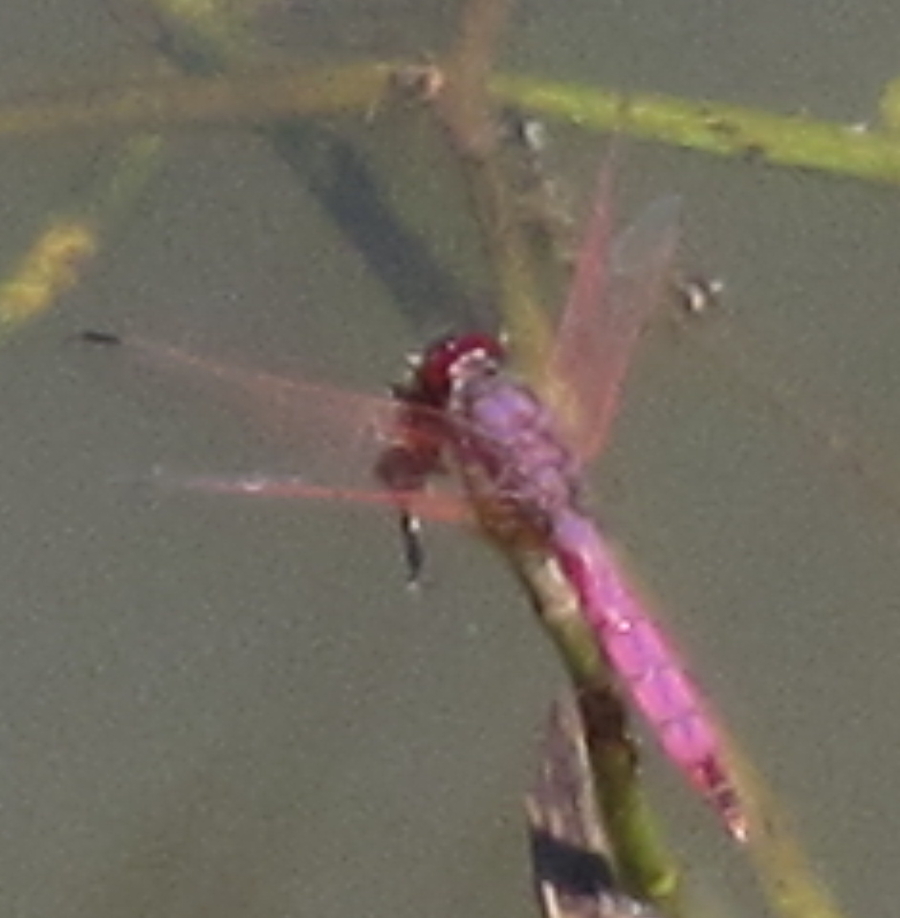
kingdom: Animalia
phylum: Arthropoda
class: Insecta
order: Odonata
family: Libellulidae
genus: Trithemis
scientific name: Trithemis annulata
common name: Violet dropwing
